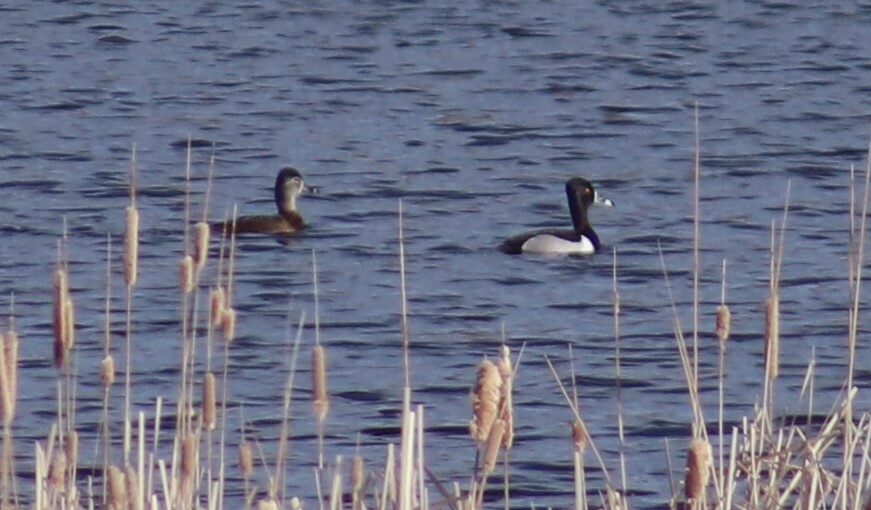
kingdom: Animalia
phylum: Chordata
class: Aves
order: Anseriformes
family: Anatidae
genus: Aythya
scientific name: Aythya collaris
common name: Ring-necked duck
